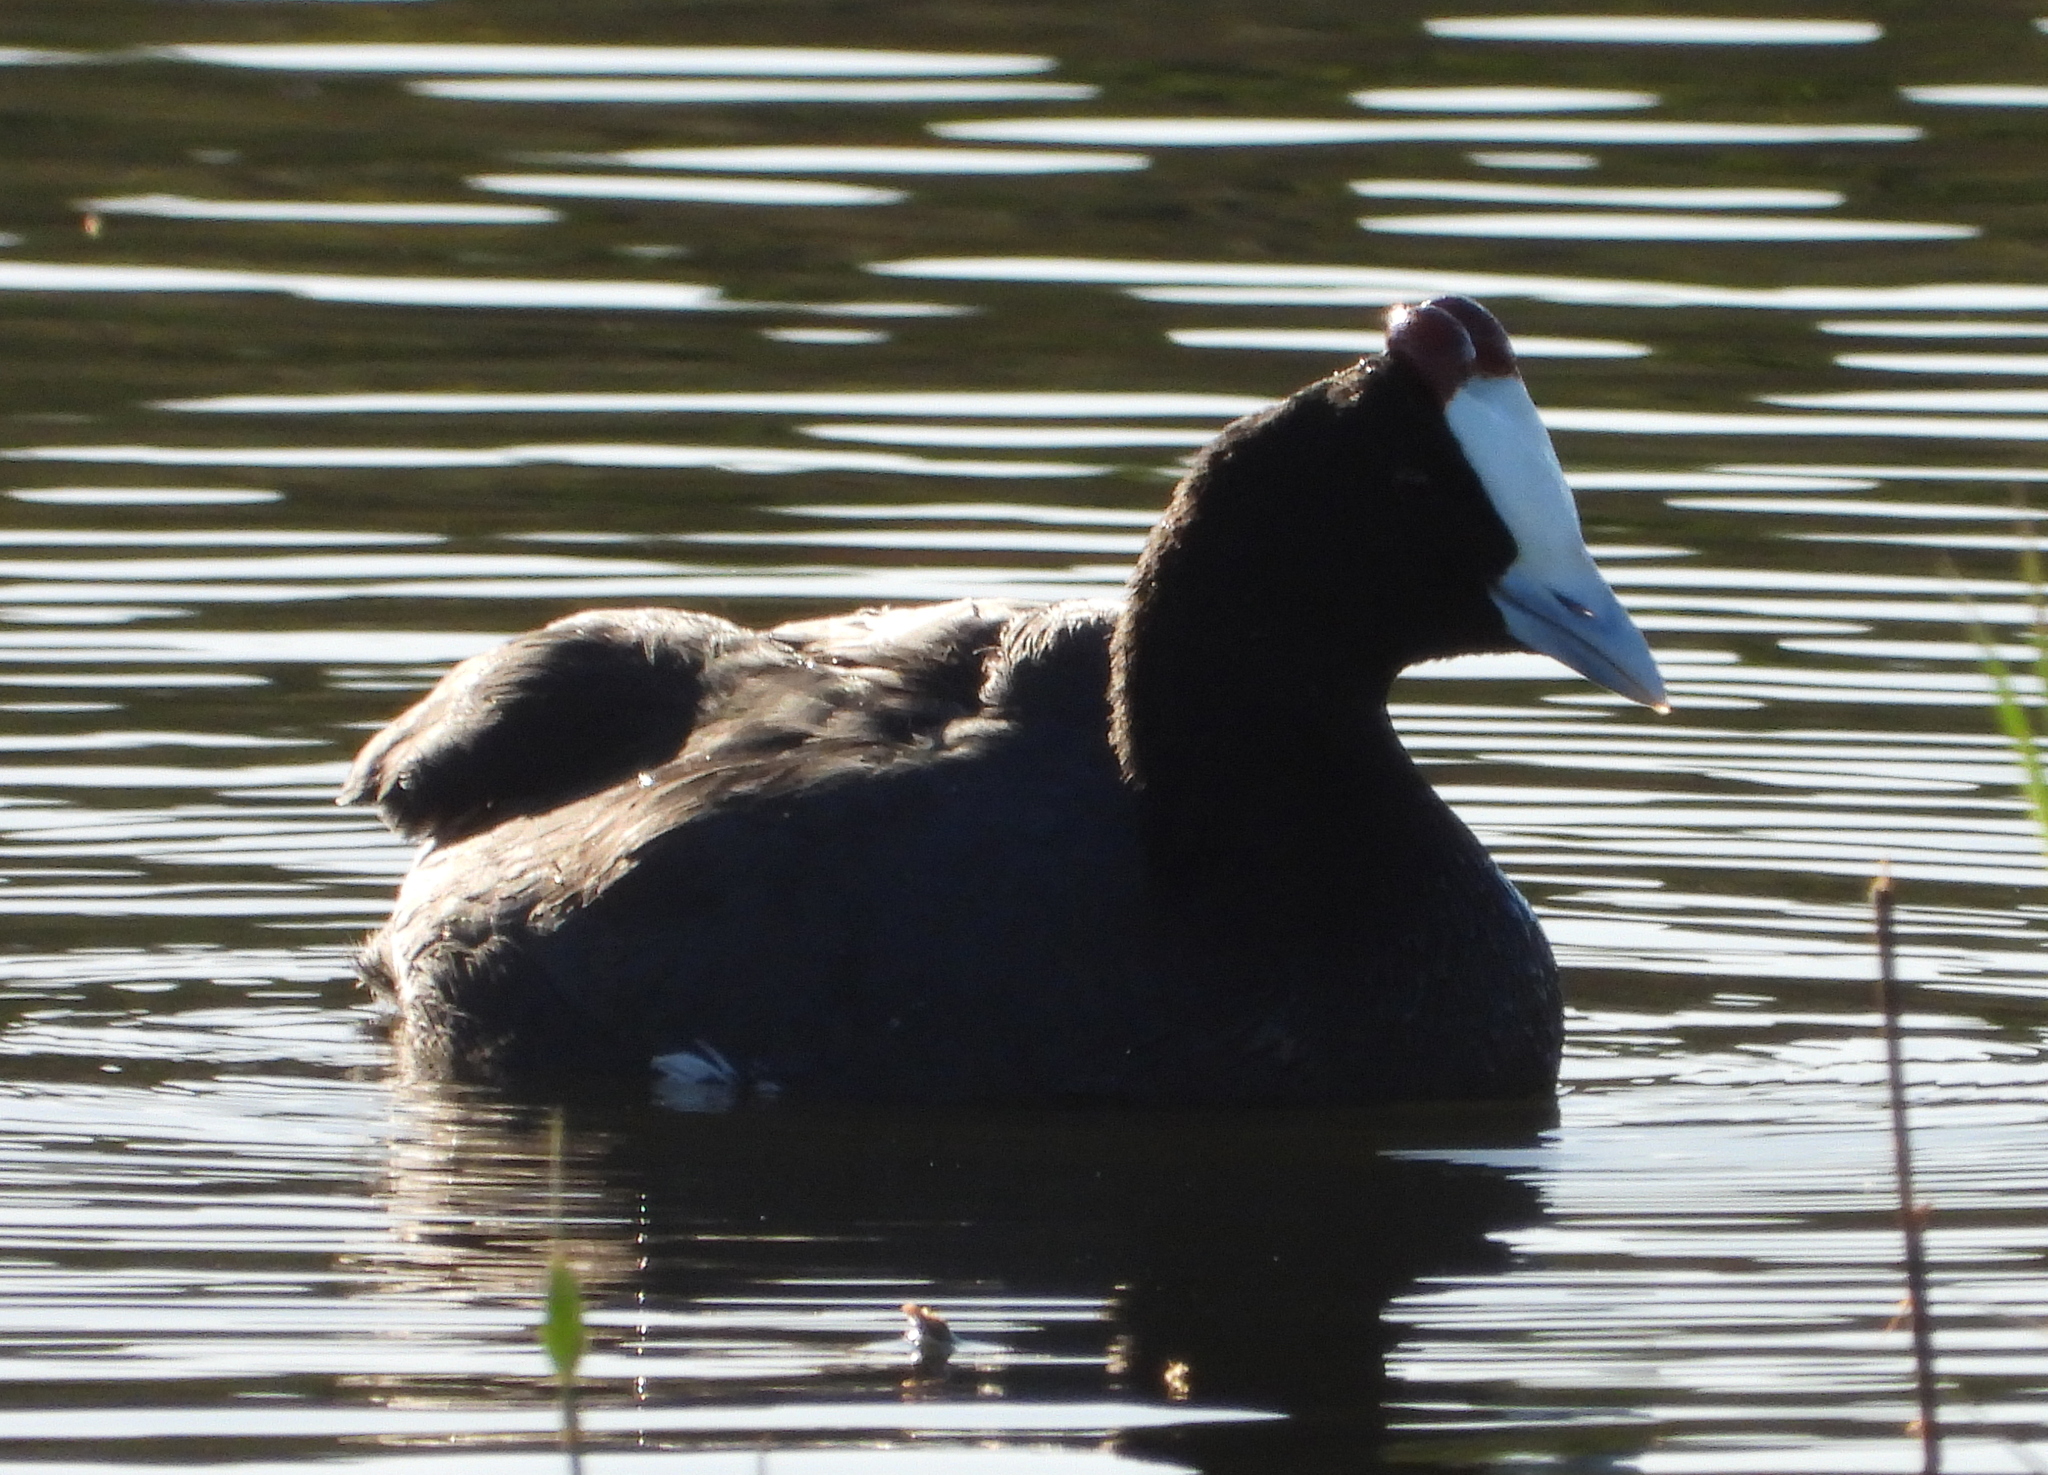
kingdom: Animalia
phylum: Chordata
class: Aves
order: Gruiformes
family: Rallidae
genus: Fulica
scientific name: Fulica cristata
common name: Red-knobbed coot
